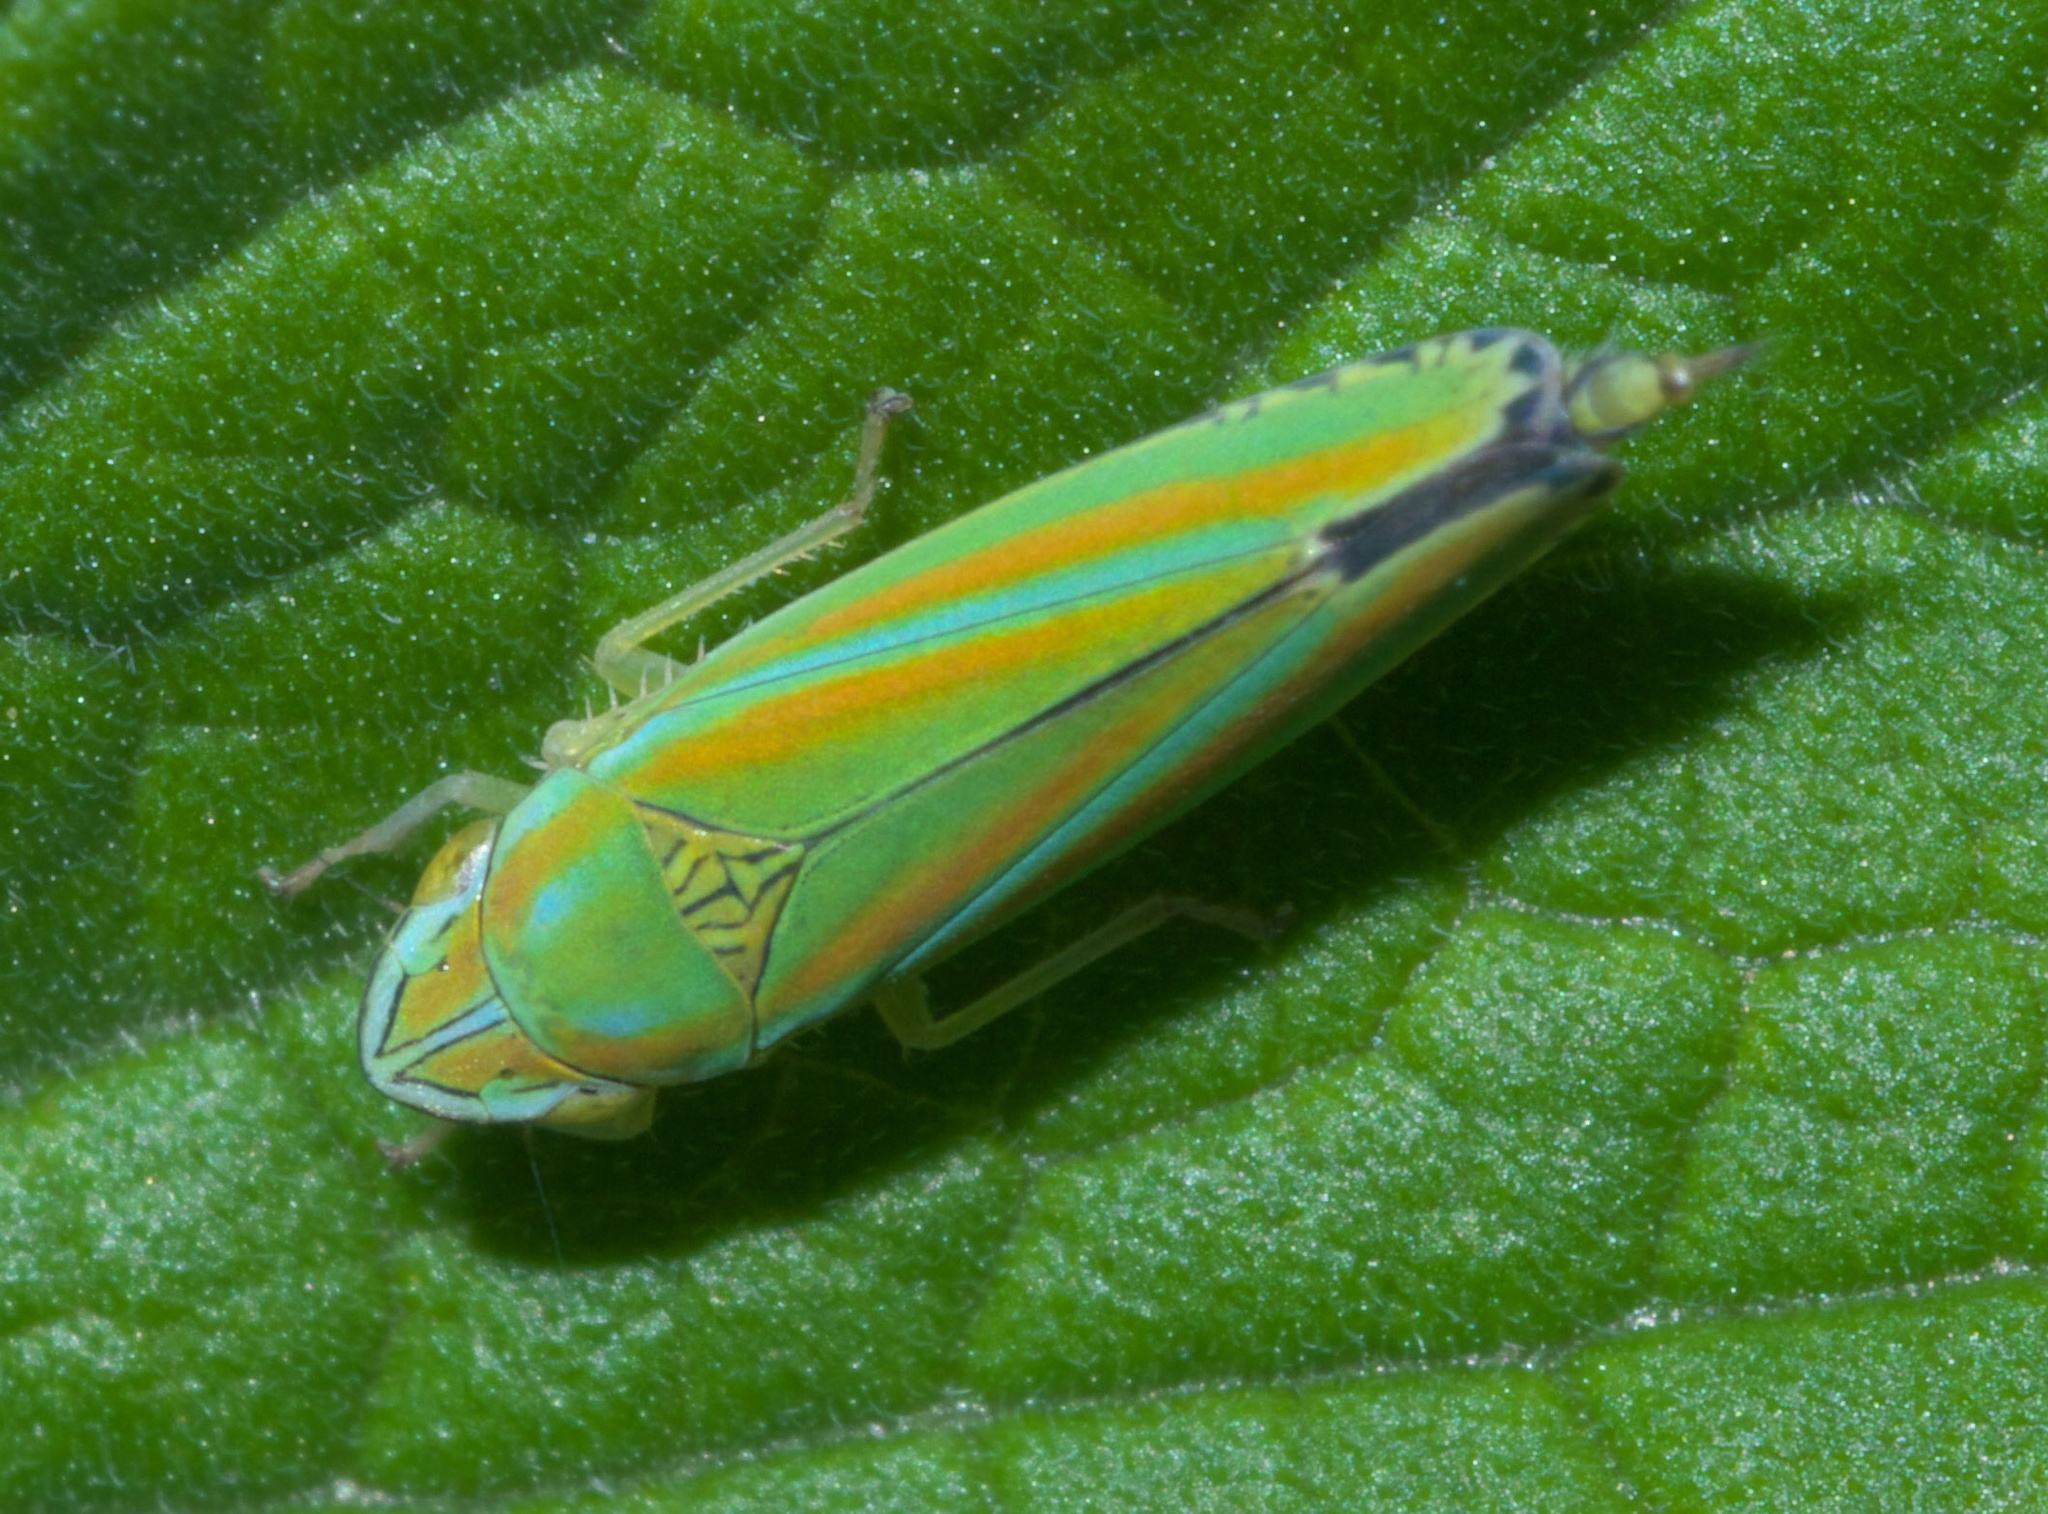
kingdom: Animalia
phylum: Arthropoda
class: Insecta
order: Hemiptera
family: Cicadellidae
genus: Graphocephala
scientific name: Graphocephala versuta
